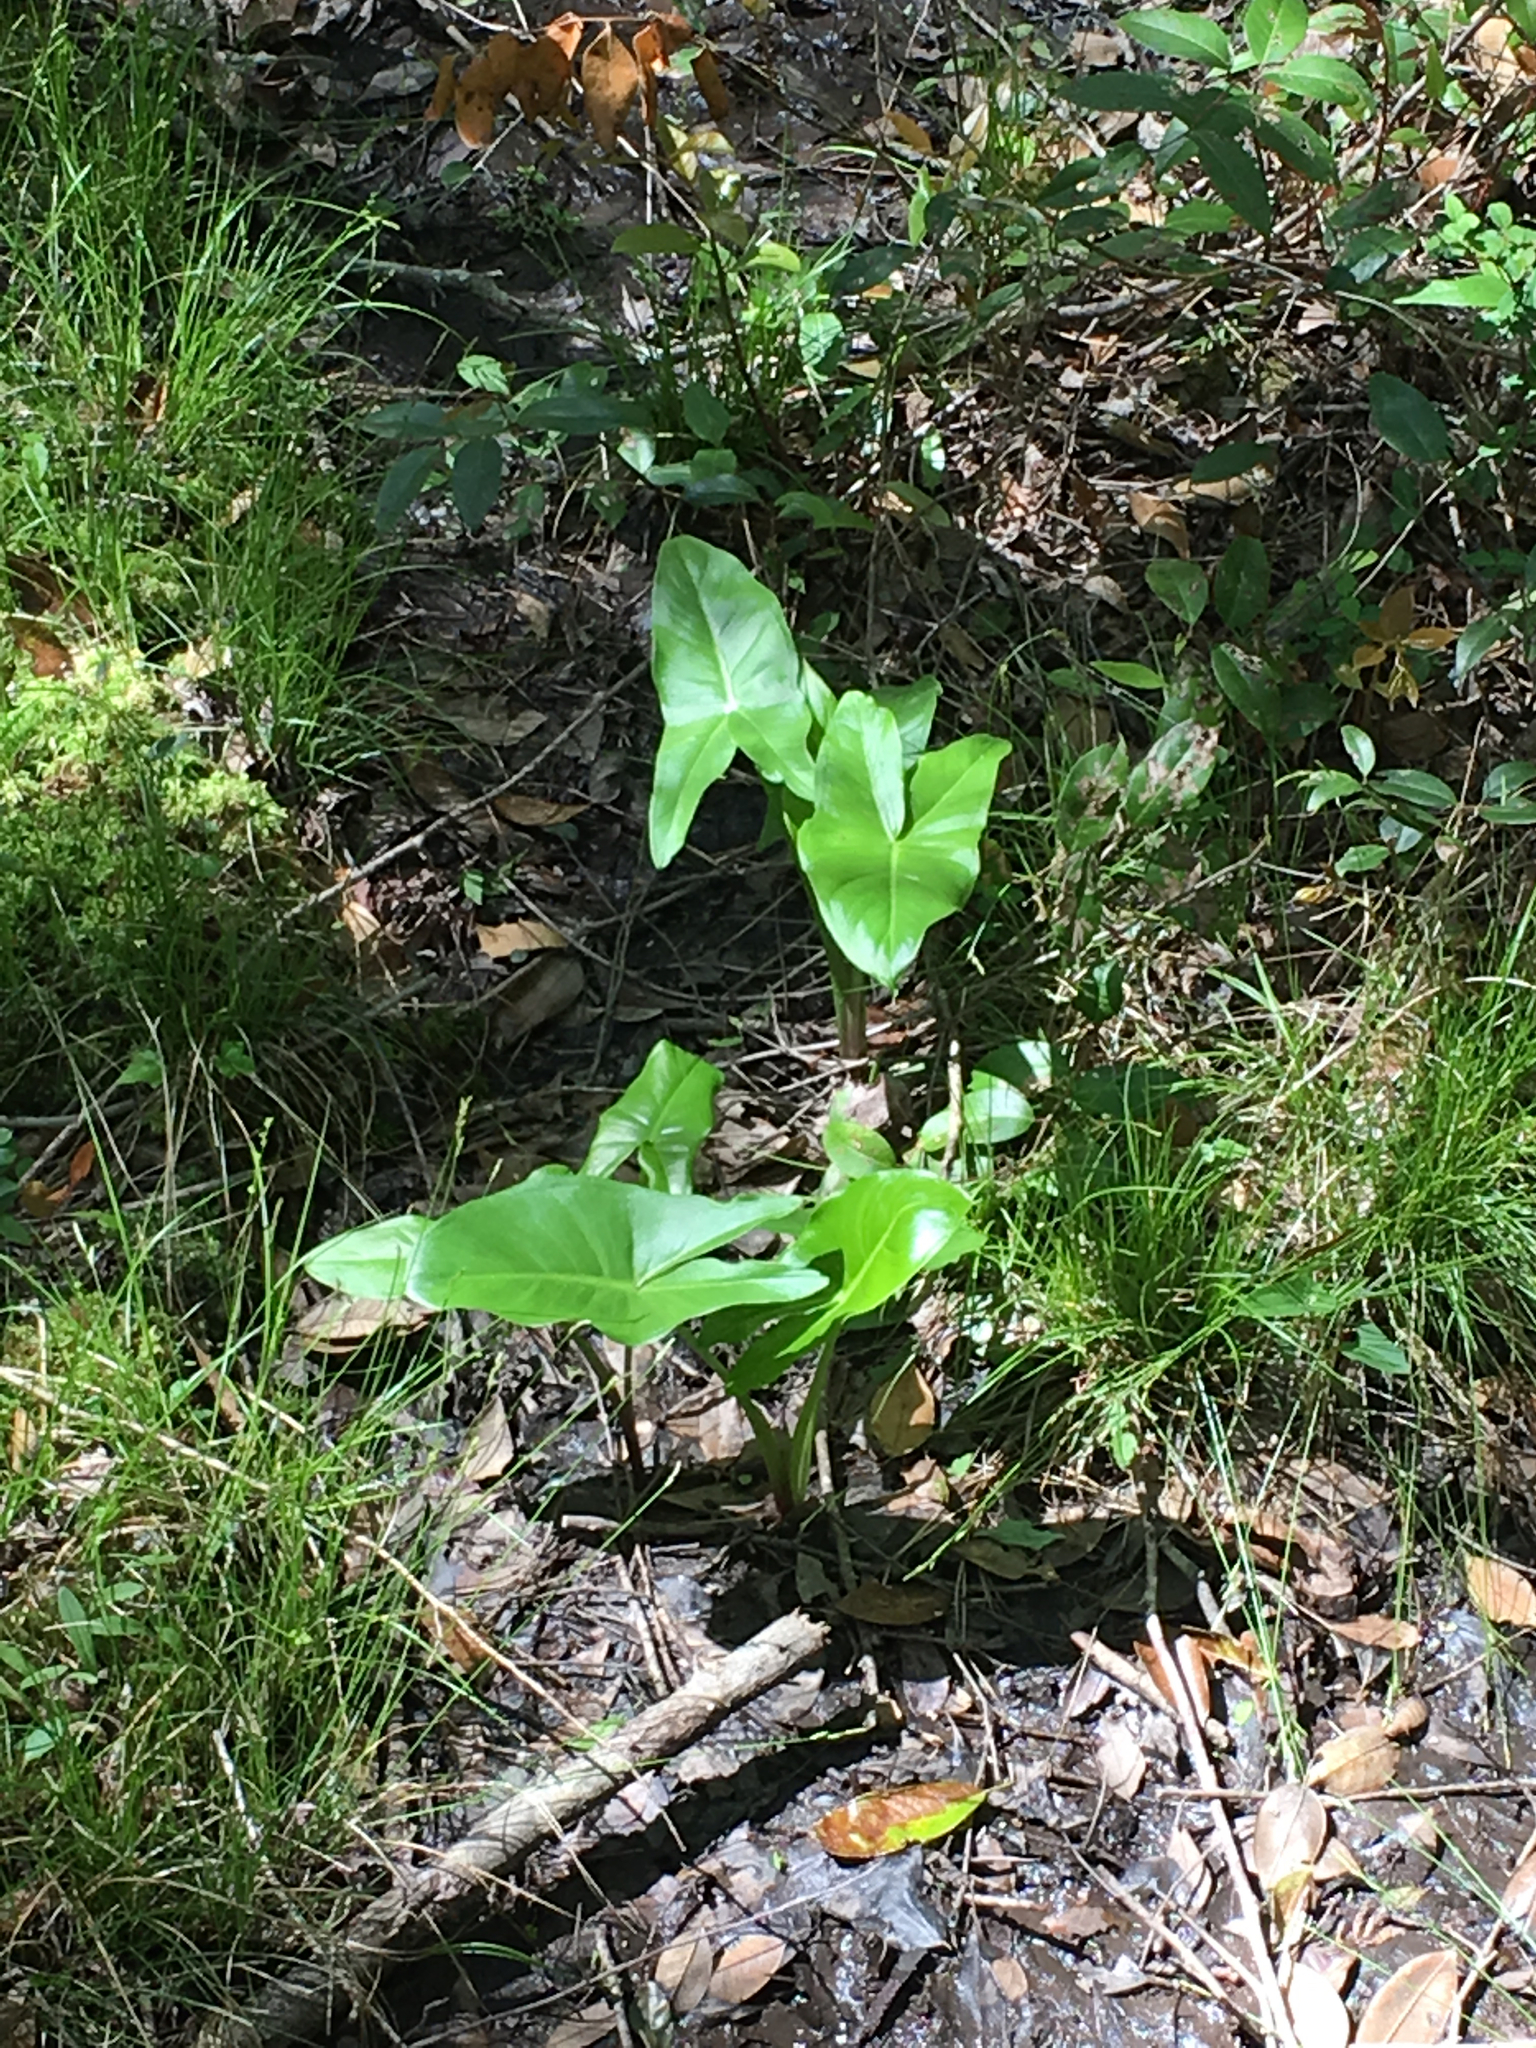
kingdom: Plantae
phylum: Tracheophyta
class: Liliopsida
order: Alismatales
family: Araceae
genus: Peltandra
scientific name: Peltandra virginica
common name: Arrow arum
